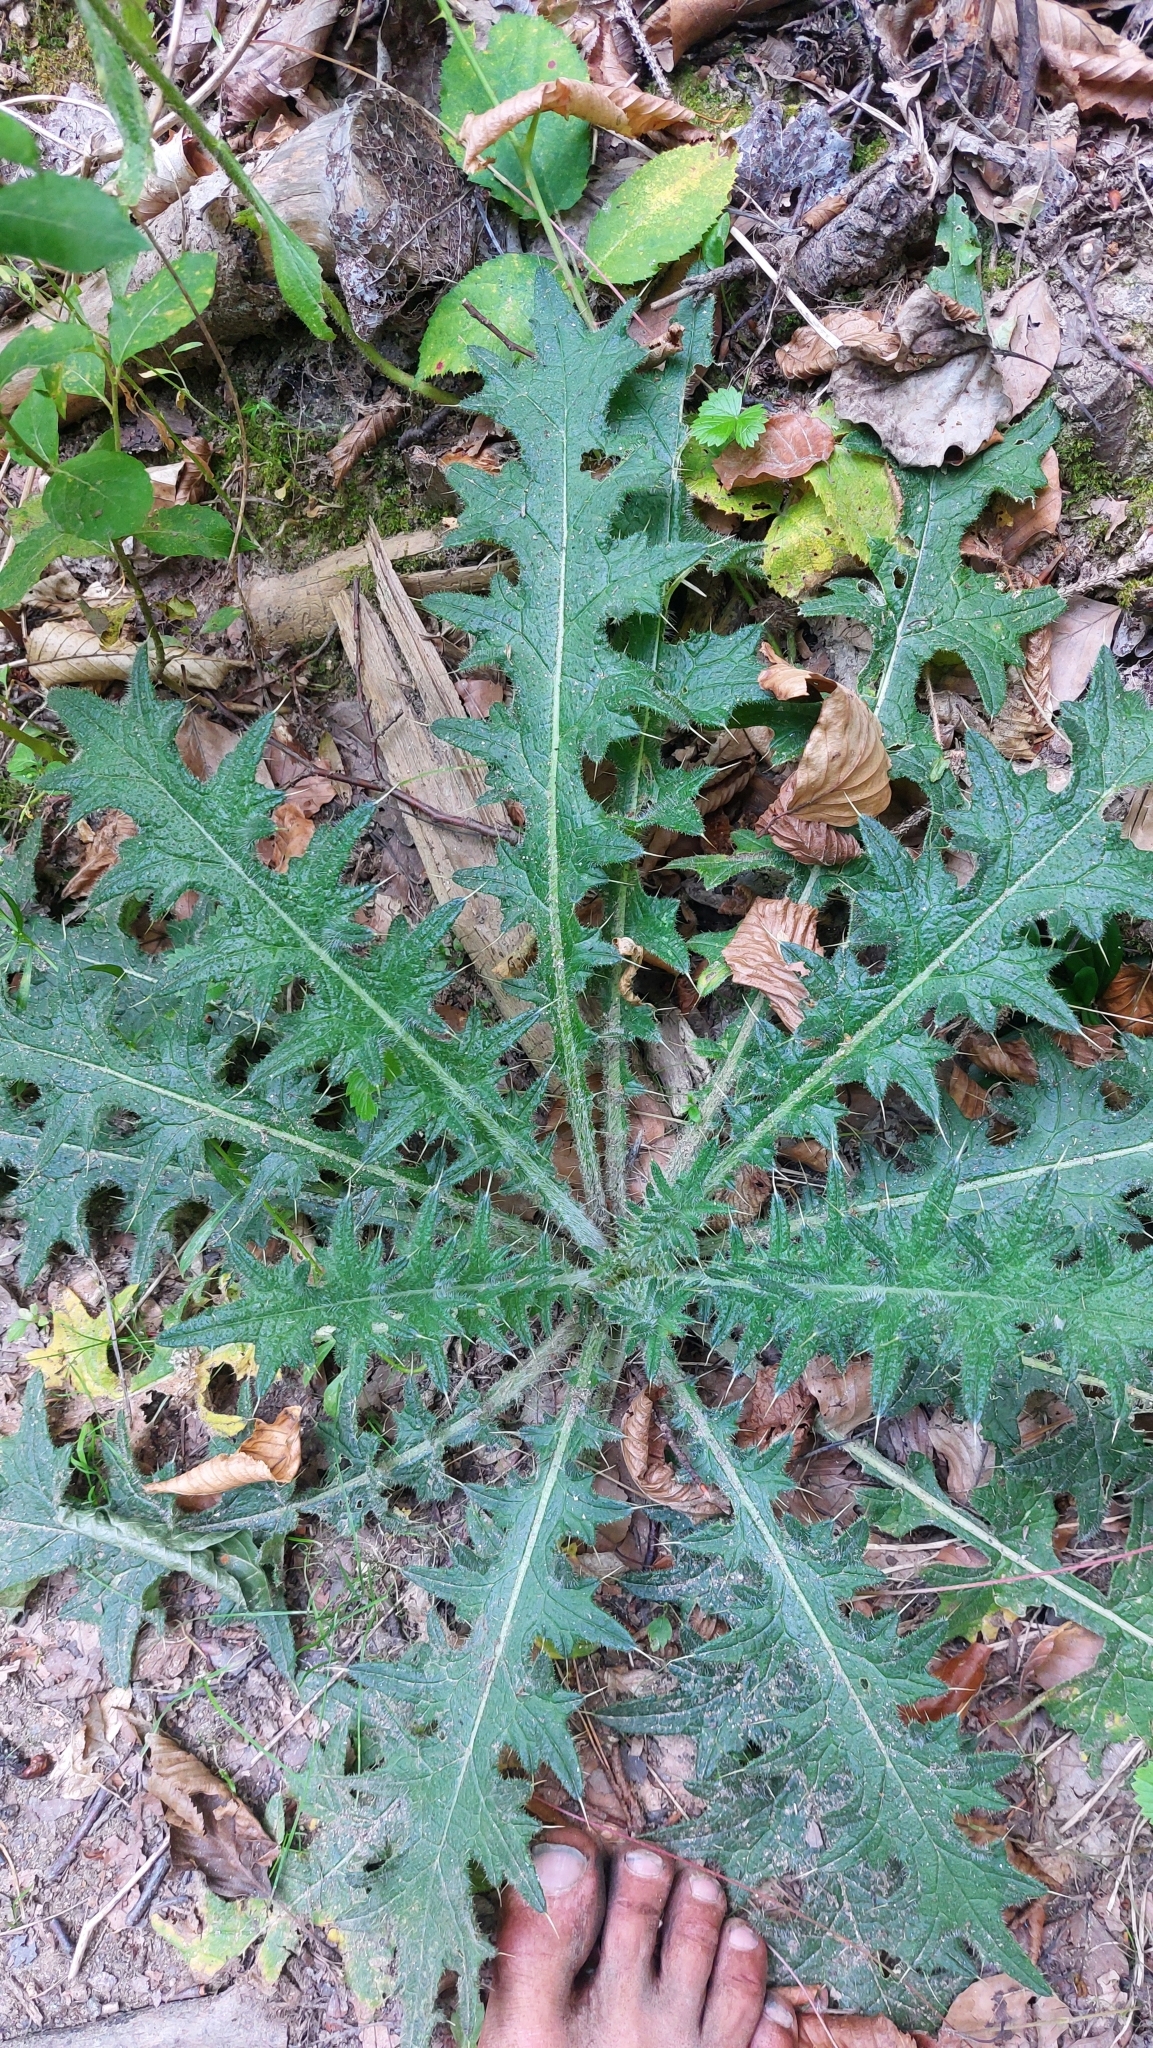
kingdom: Plantae
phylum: Tracheophyta
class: Magnoliopsida
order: Asterales
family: Asteraceae
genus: Cirsium
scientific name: Cirsium vulgare
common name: Bull thistle
